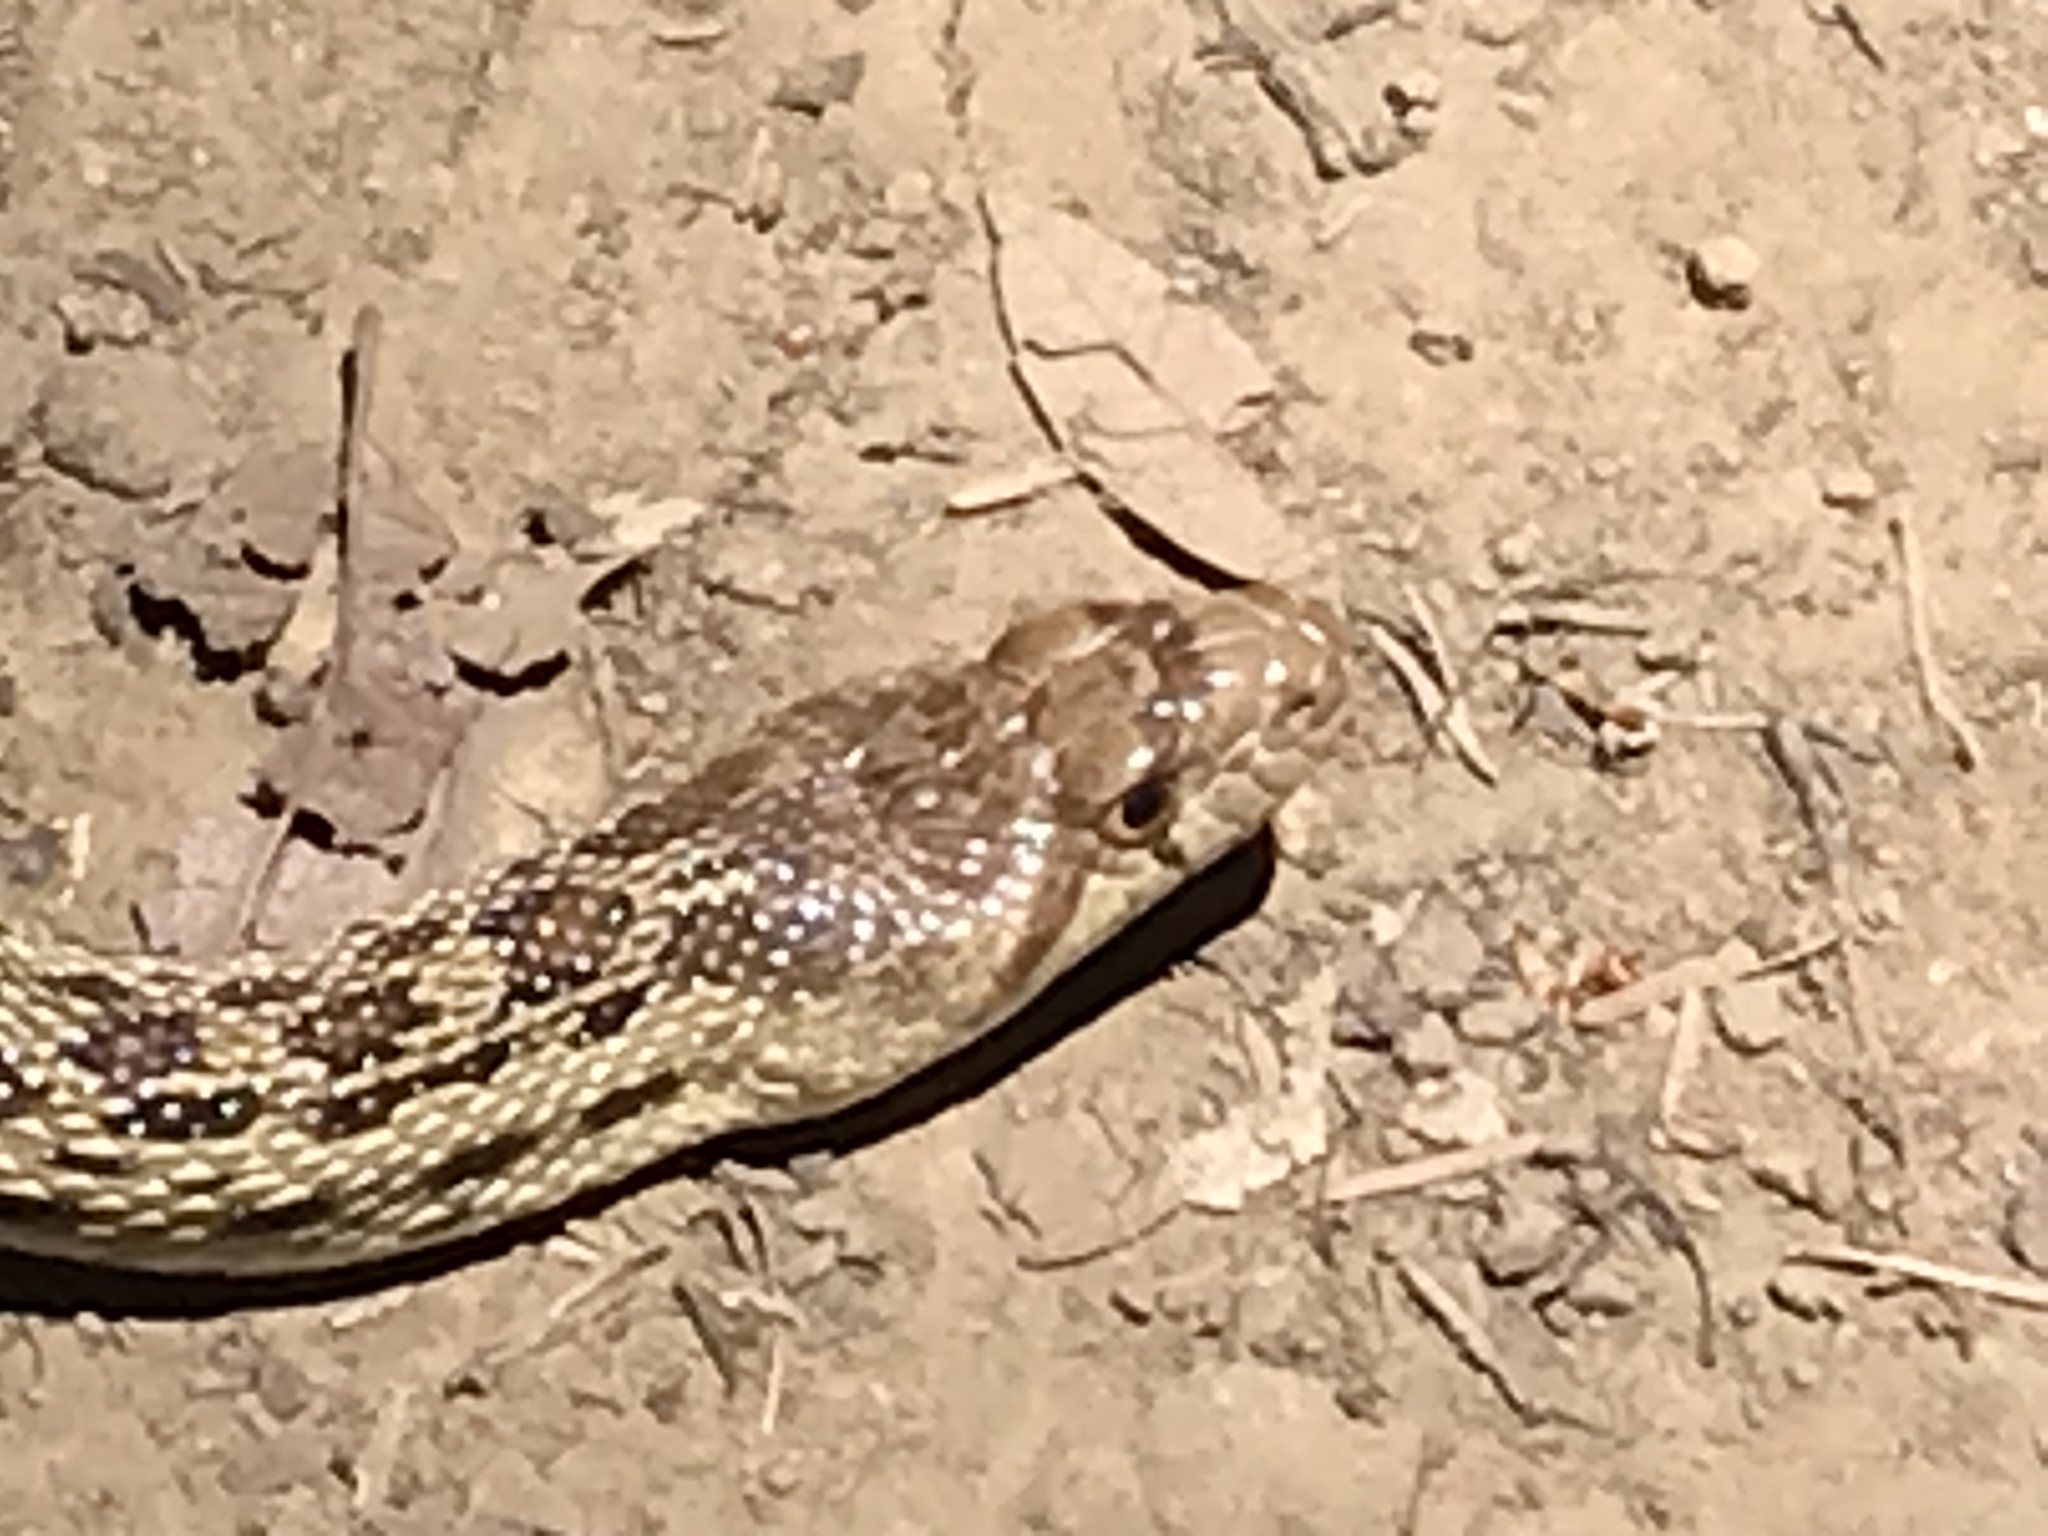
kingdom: Animalia
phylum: Chordata
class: Squamata
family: Colubridae
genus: Pituophis
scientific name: Pituophis catenifer
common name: Gopher snake
